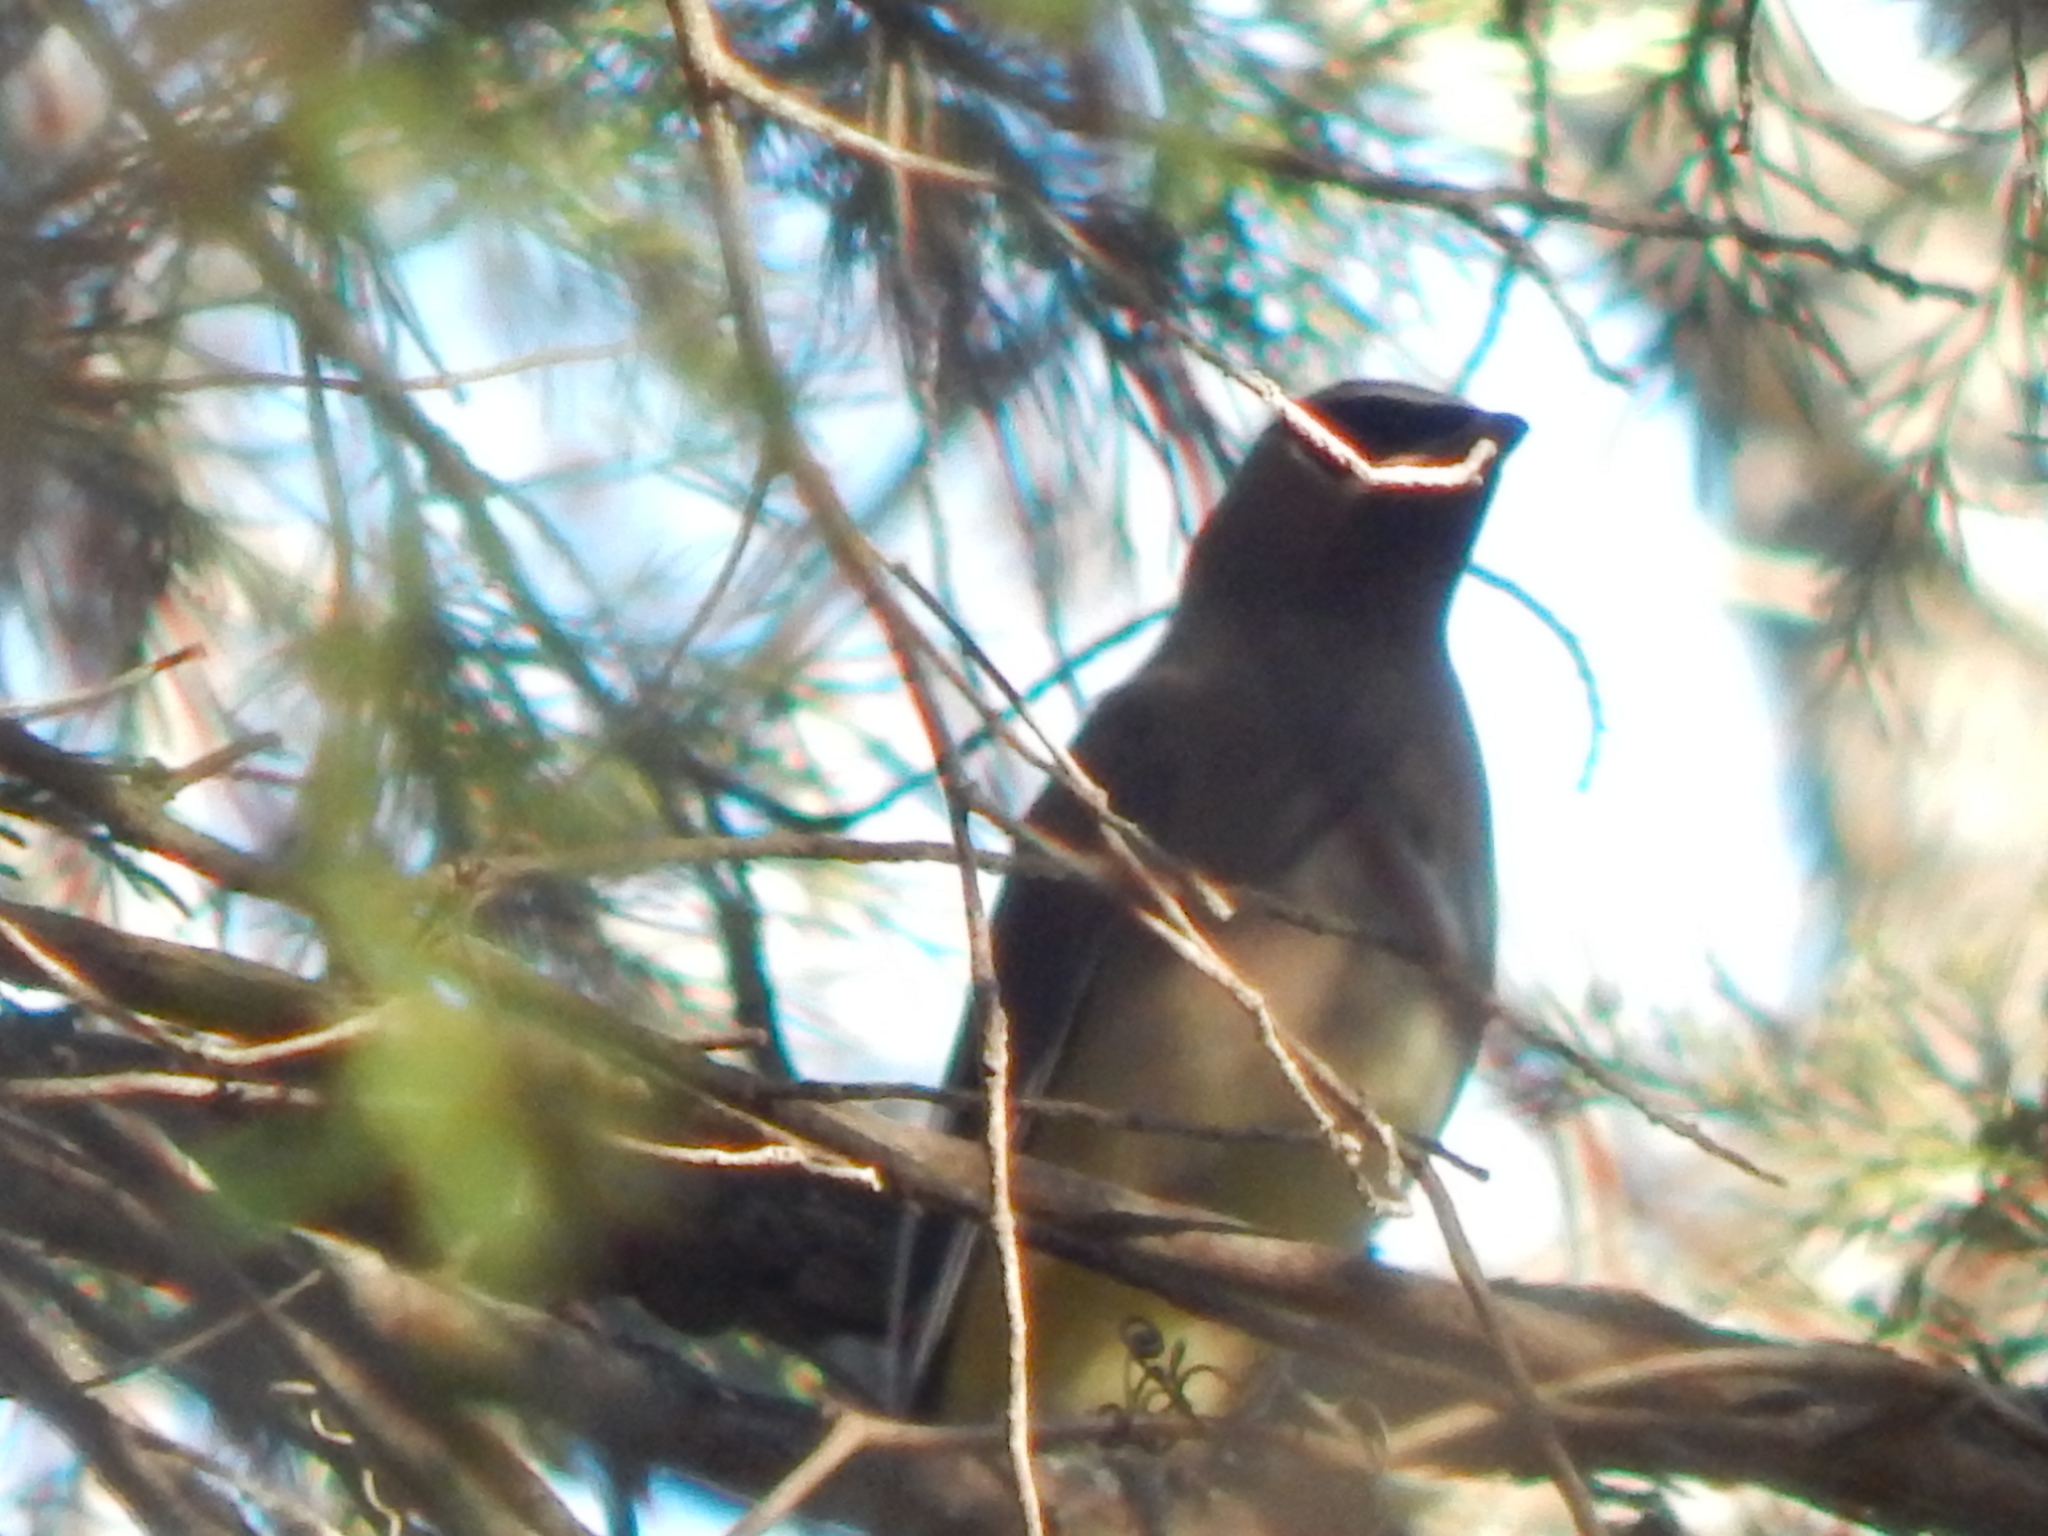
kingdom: Animalia
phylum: Chordata
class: Aves
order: Passeriformes
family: Bombycillidae
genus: Bombycilla
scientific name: Bombycilla cedrorum
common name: Cedar waxwing
